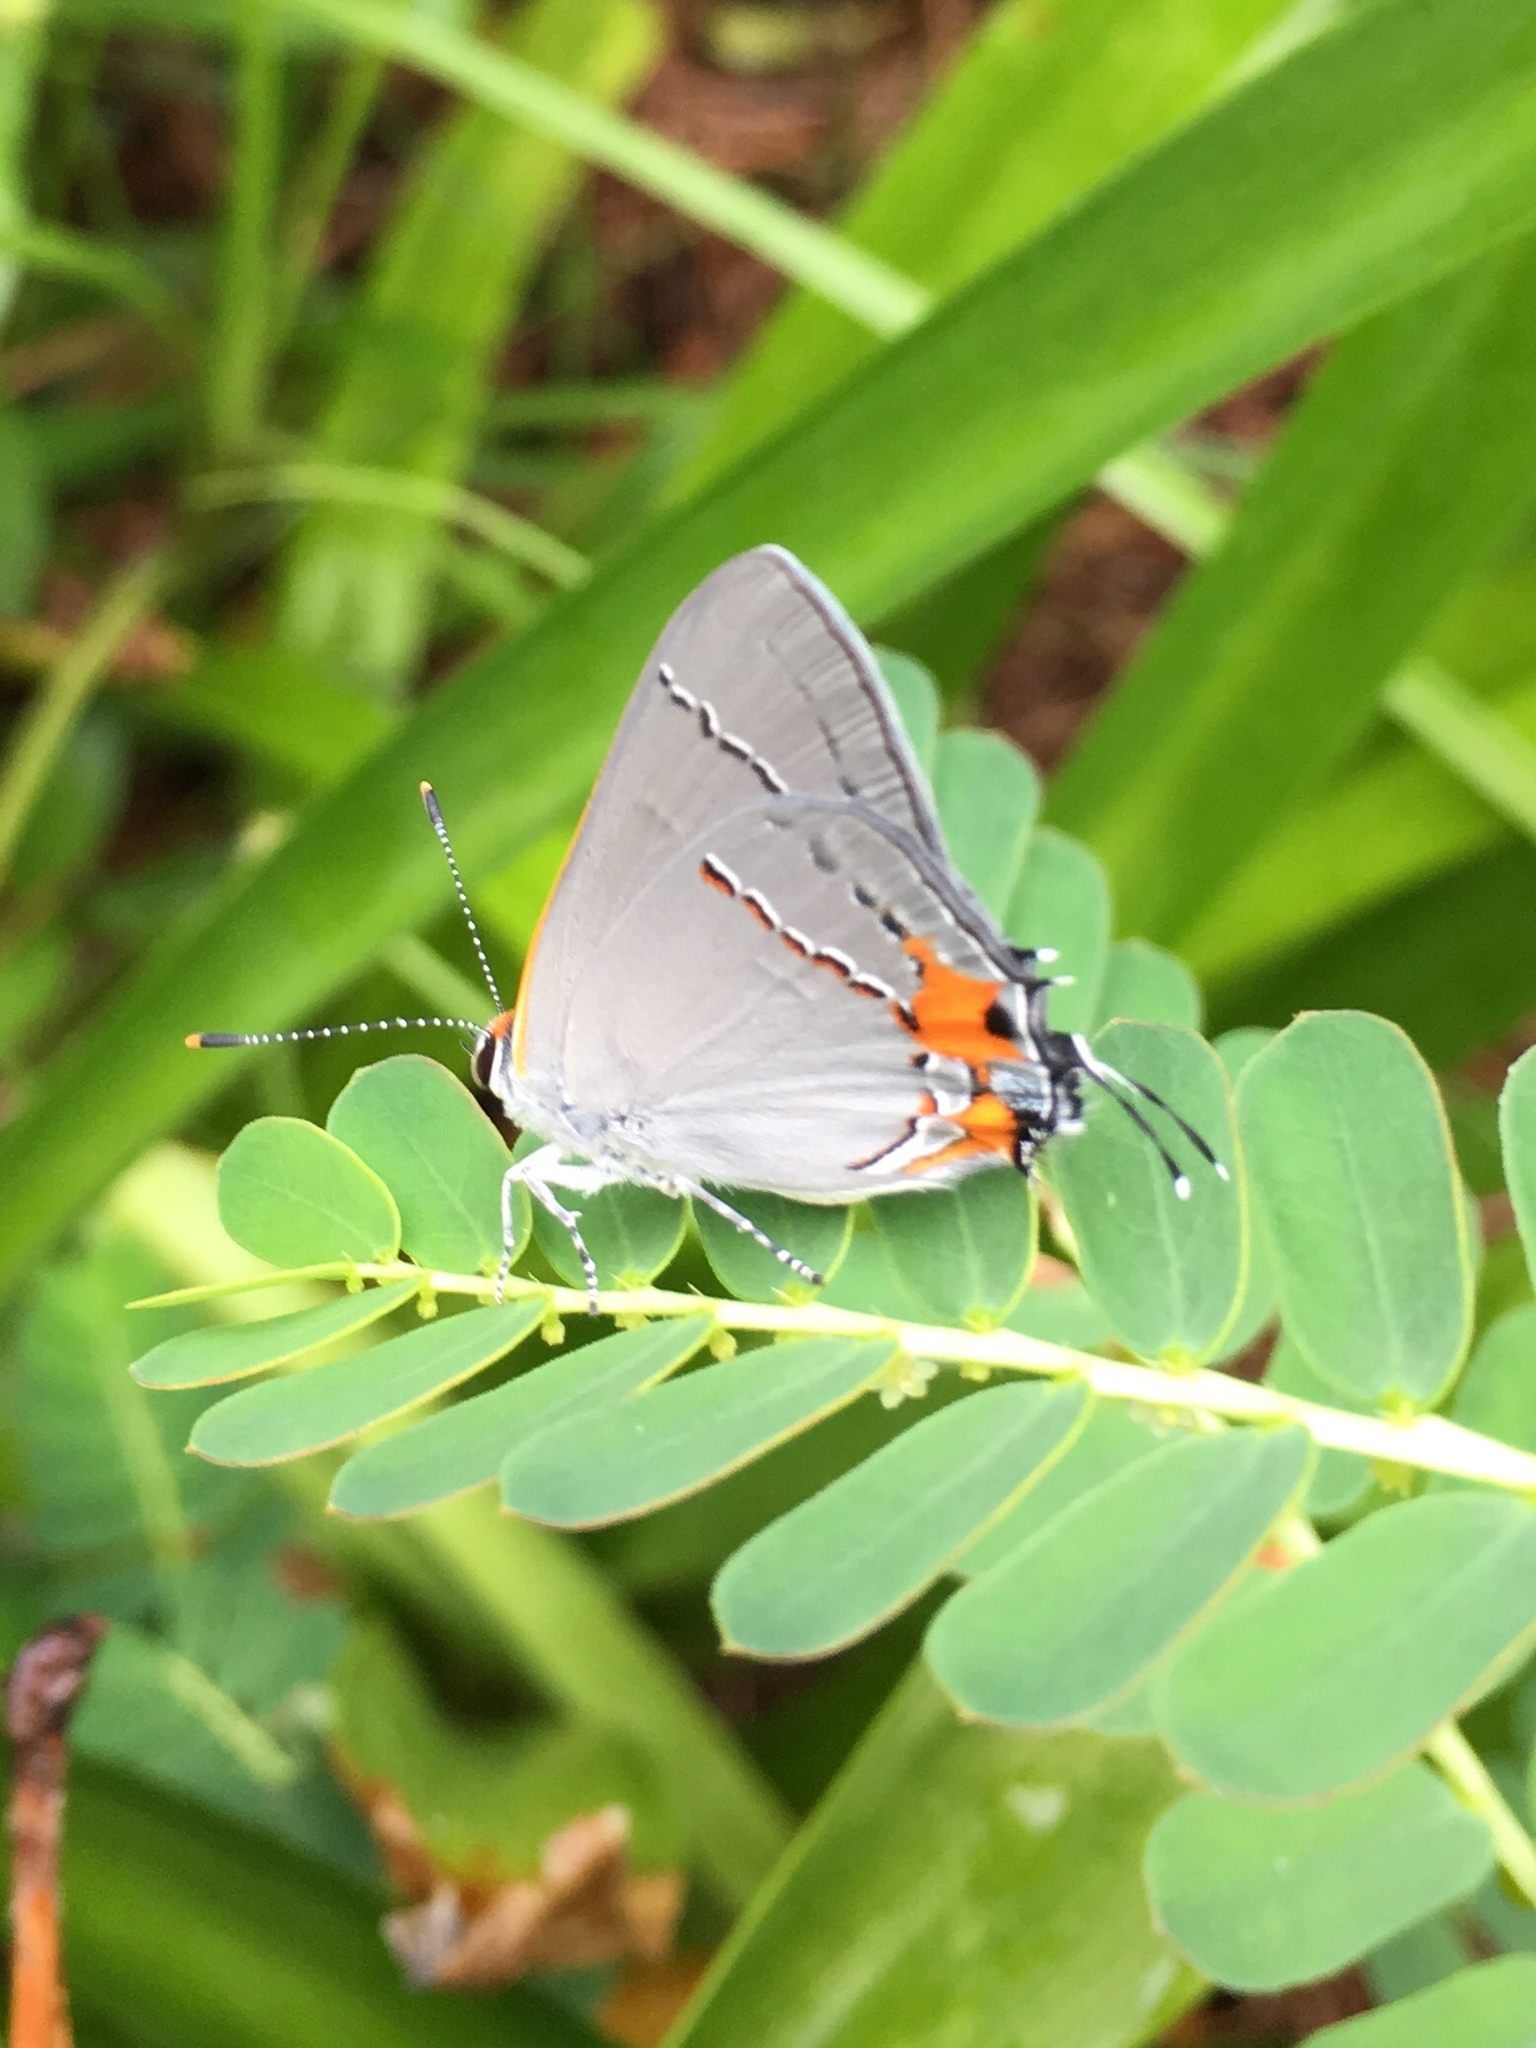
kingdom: Animalia
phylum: Arthropoda
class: Insecta
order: Lepidoptera
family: Lycaenidae
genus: Strymon
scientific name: Strymon melinus
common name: Gray hairstreak
